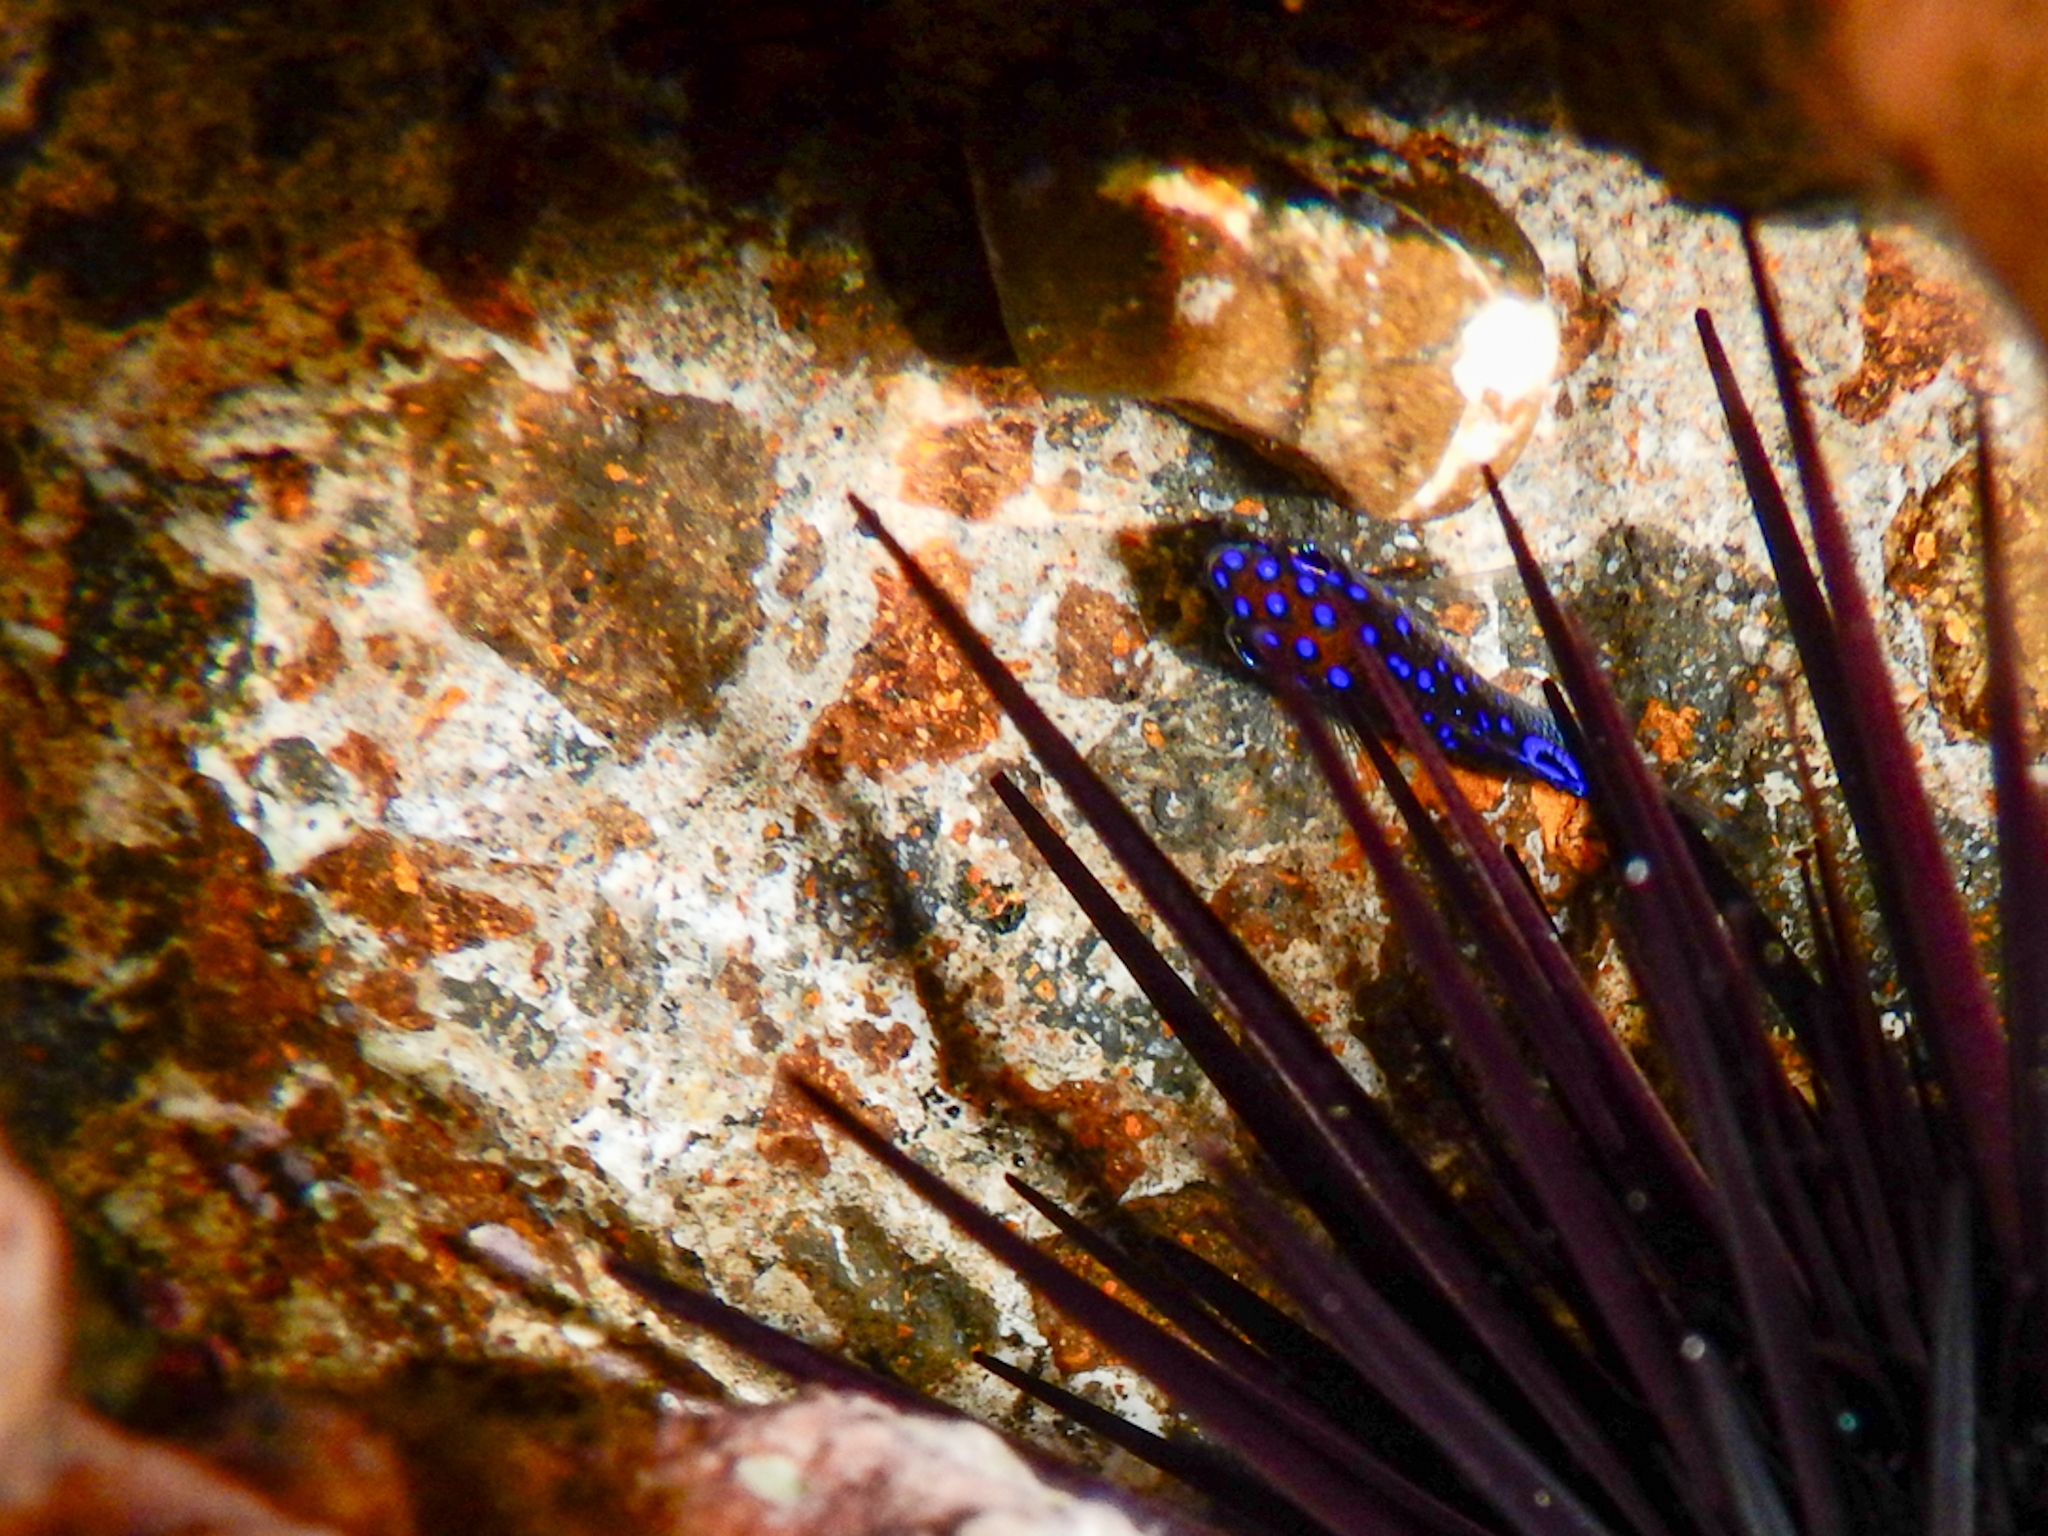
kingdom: Animalia
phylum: Chordata
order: Perciformes
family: Pomacentridae
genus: Stegastes
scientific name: Stegastes imbricatus
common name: Cape verde gregory
